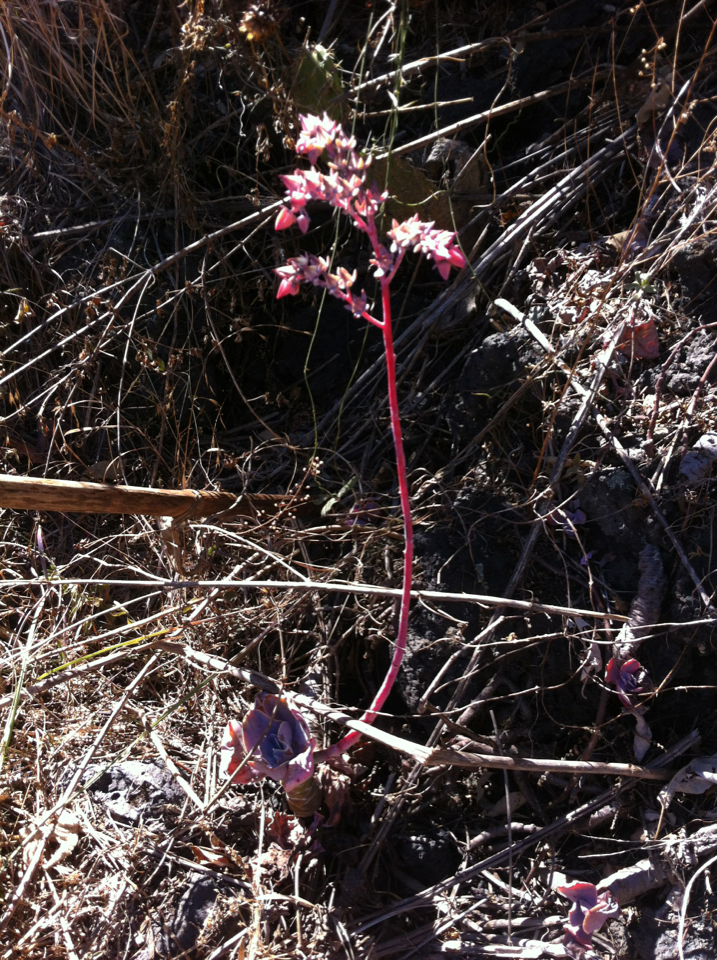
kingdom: Plantae
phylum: Tracheophyta
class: Magnoliopsida
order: Saxifragales
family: Crassulaceae
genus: Echeveria
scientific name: Echeveria gibbiflora
